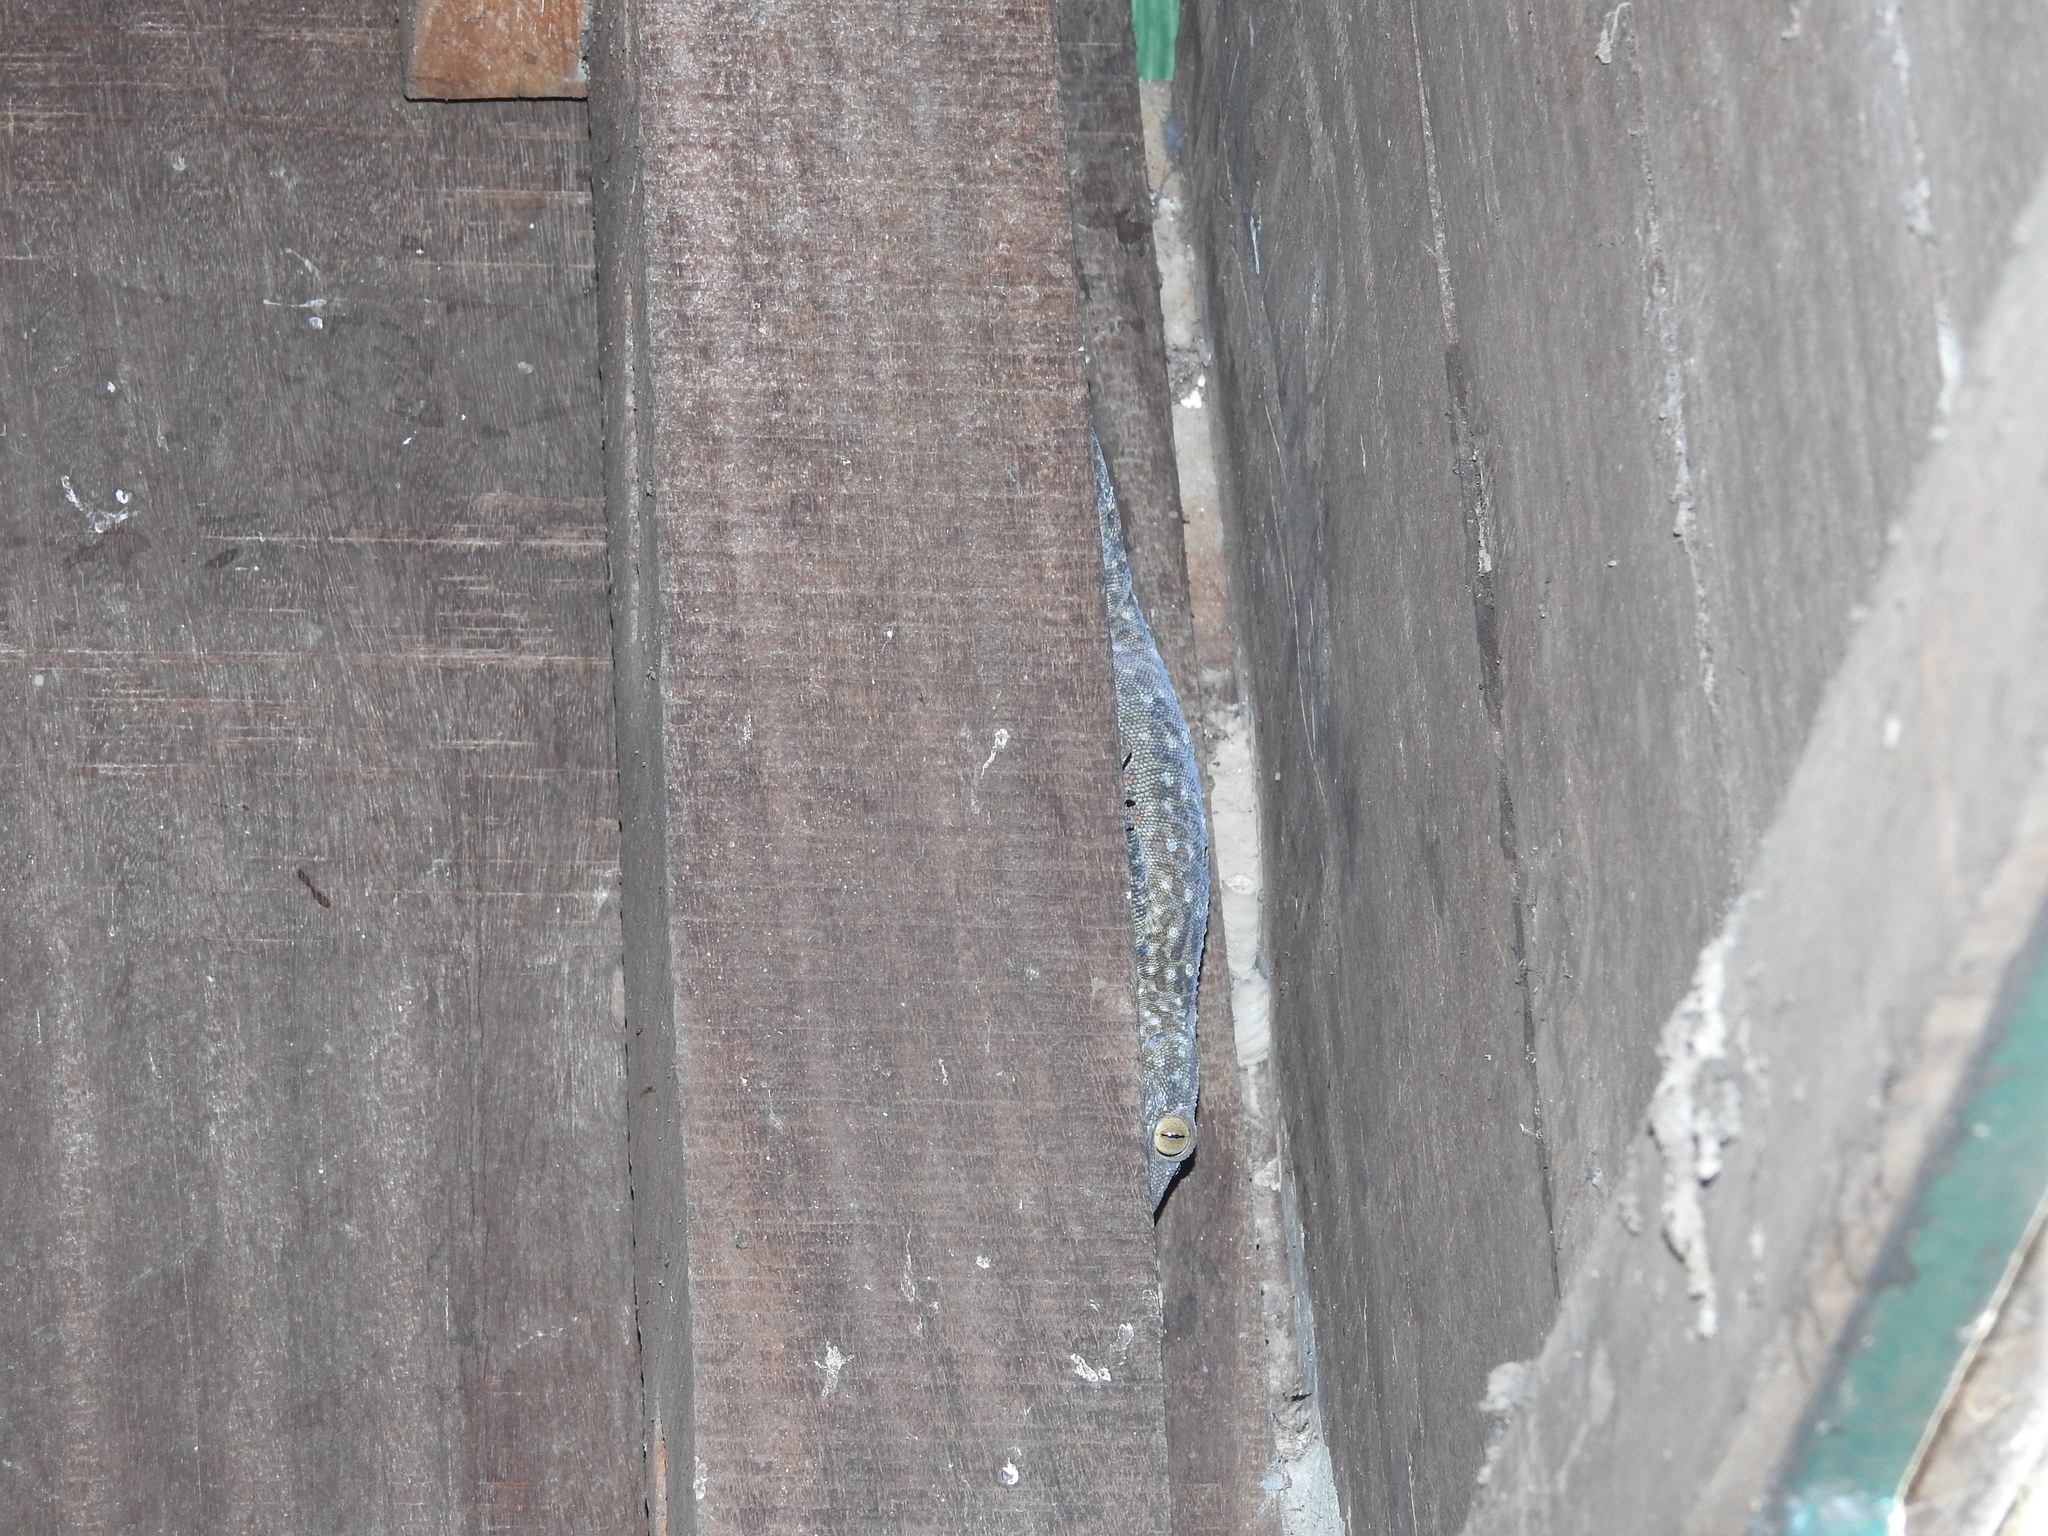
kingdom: Animalia
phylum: Chordata
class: Squamata
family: Gekkonidae
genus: Gekko
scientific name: Gekko gecko
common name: Tokay gecko
